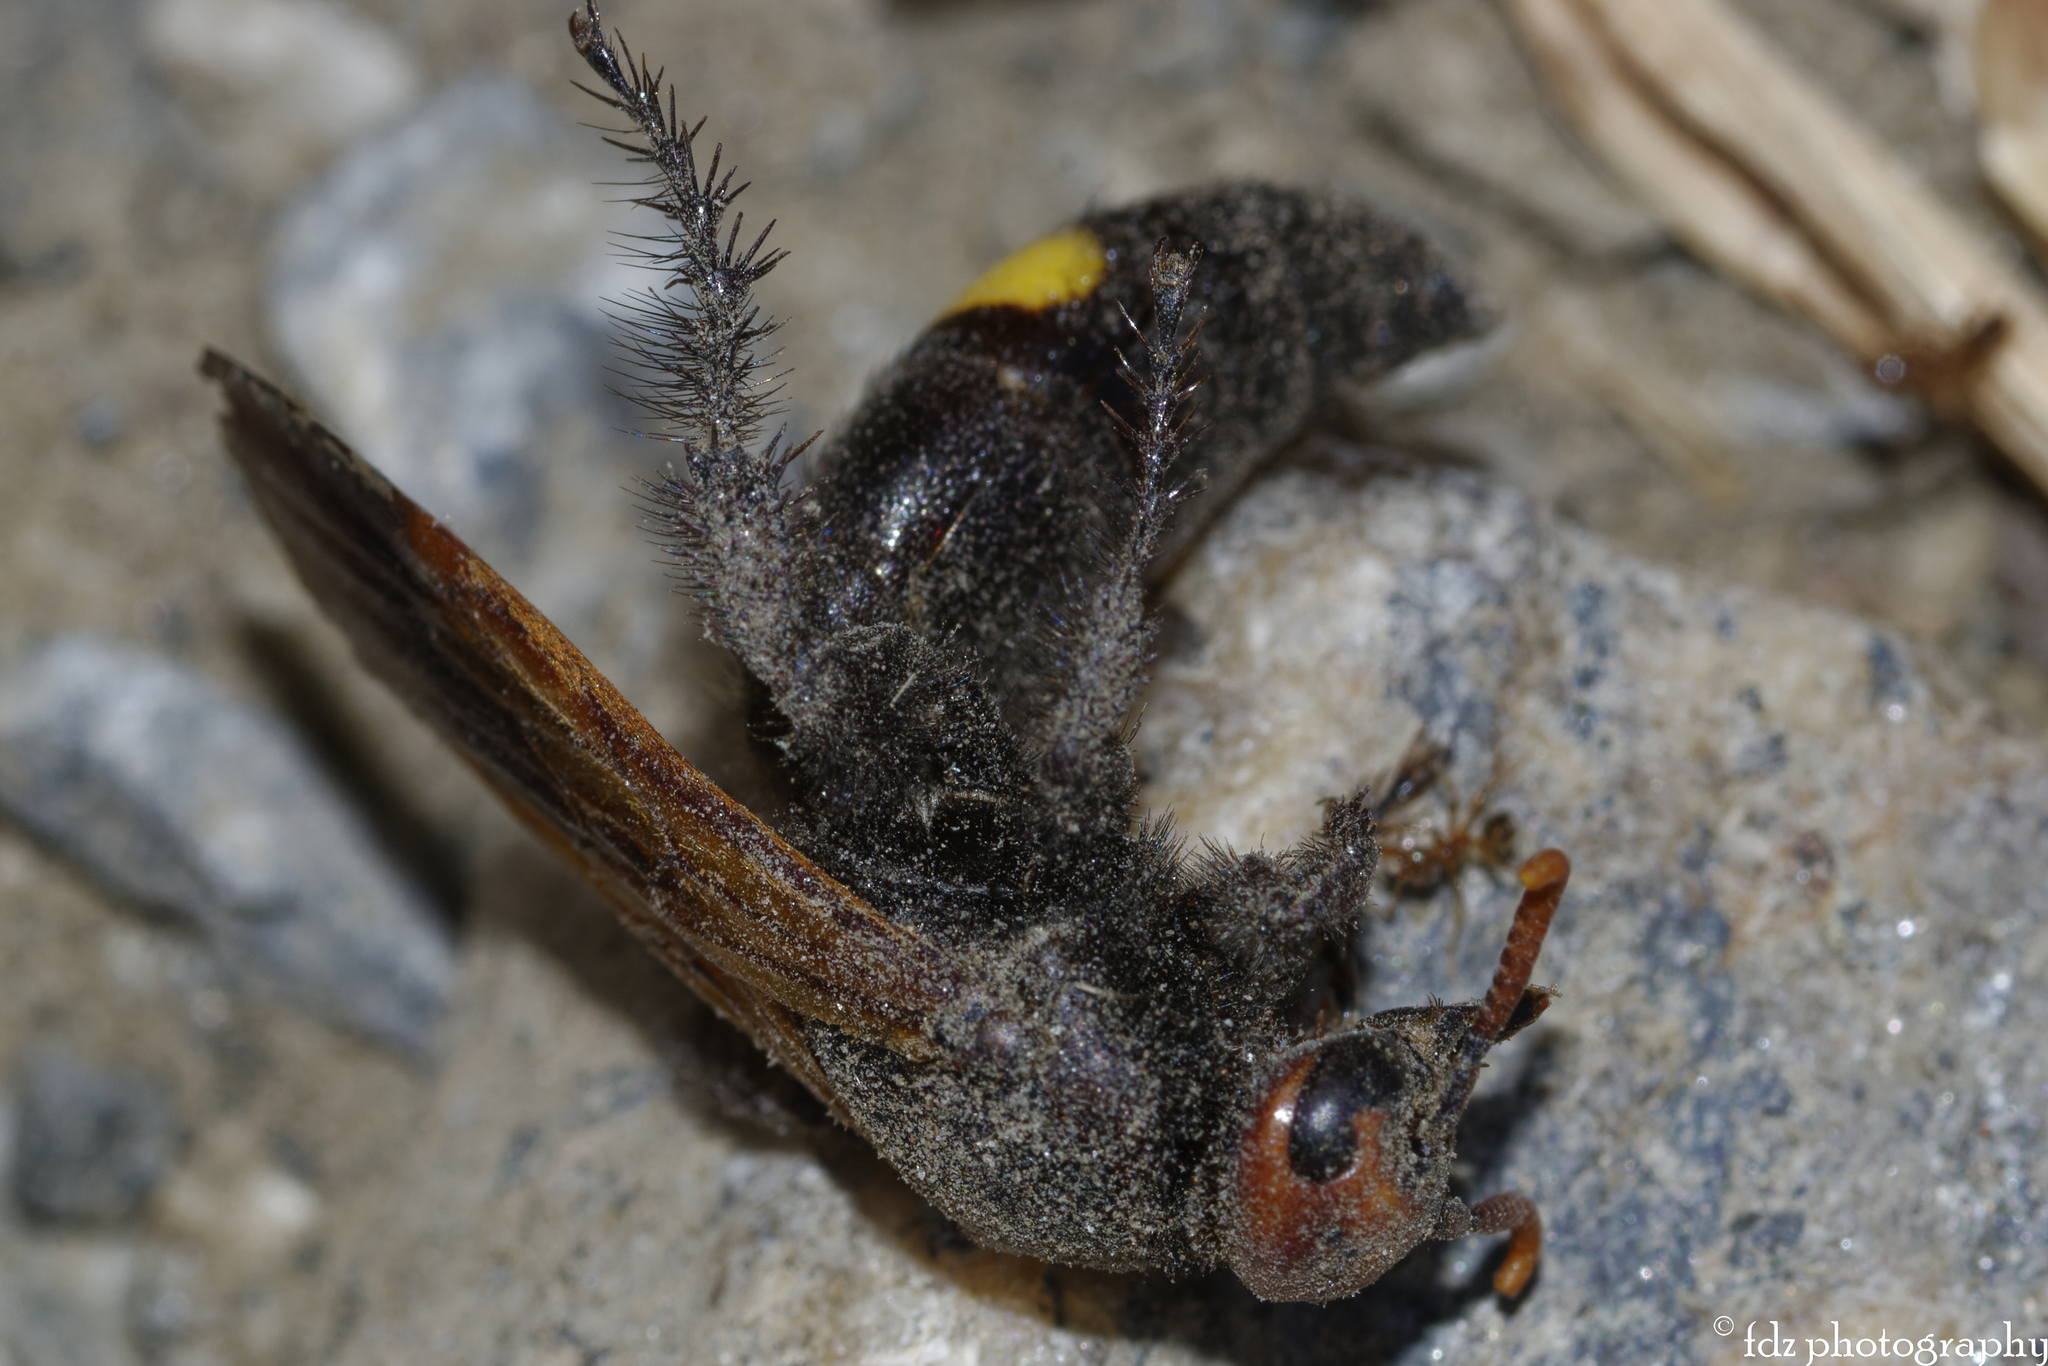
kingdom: Animalia
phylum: Arthropoda
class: Insecta
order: Hymenoptera
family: Scoliidae
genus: Megascolia
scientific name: Megascolia bidens
